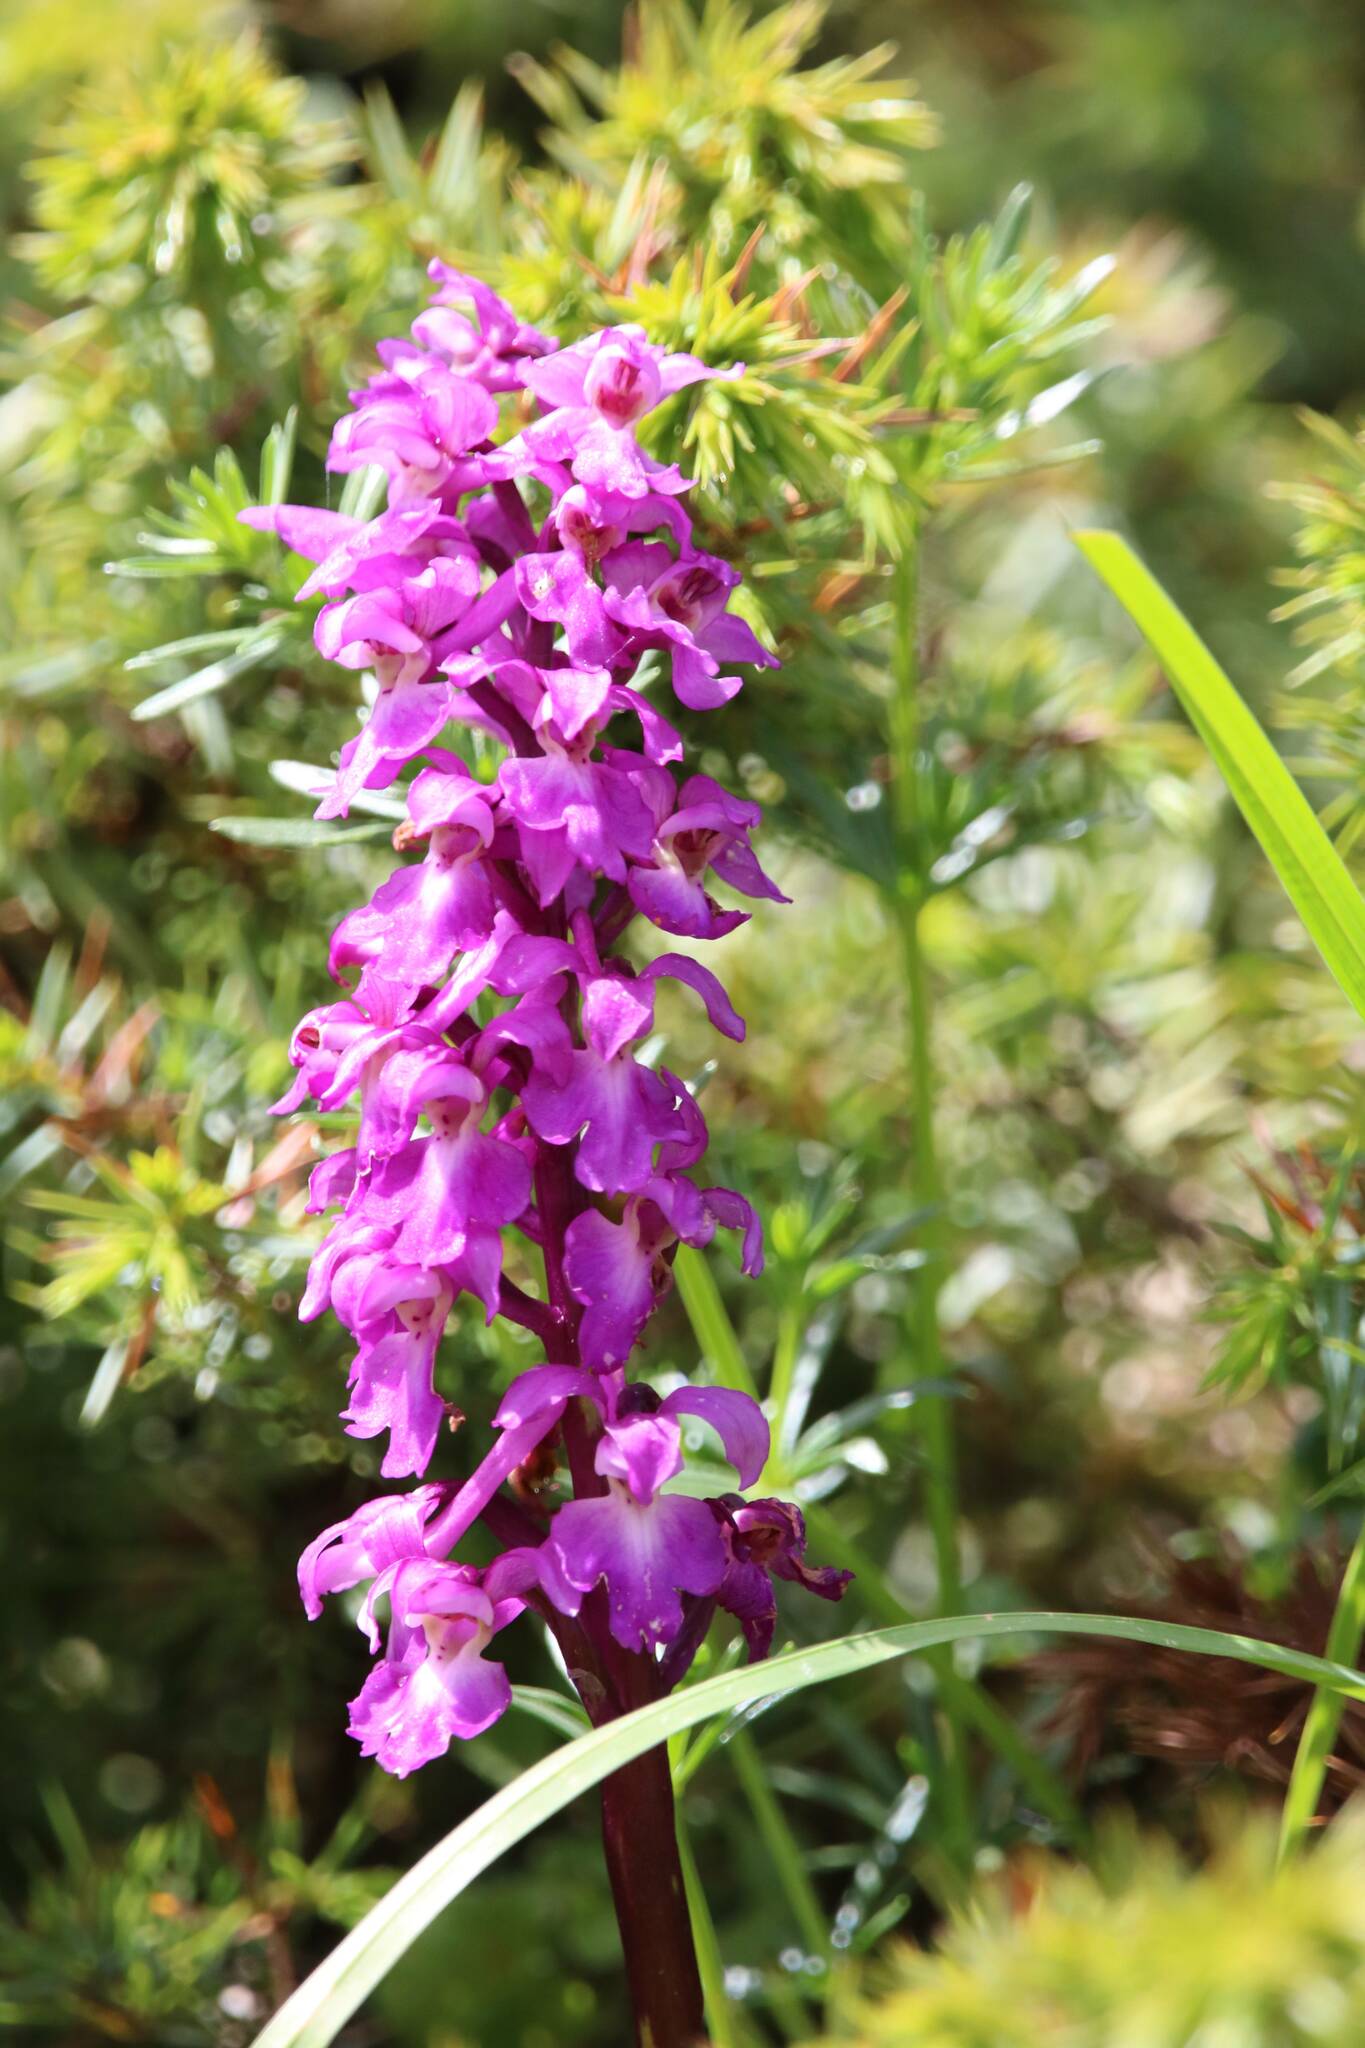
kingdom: Plantae
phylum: Tracheophyta
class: Liliopsida
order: Asparagales
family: Orchidaceae
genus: Orchis
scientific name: Orchis mascula
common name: Early-purple orchid
